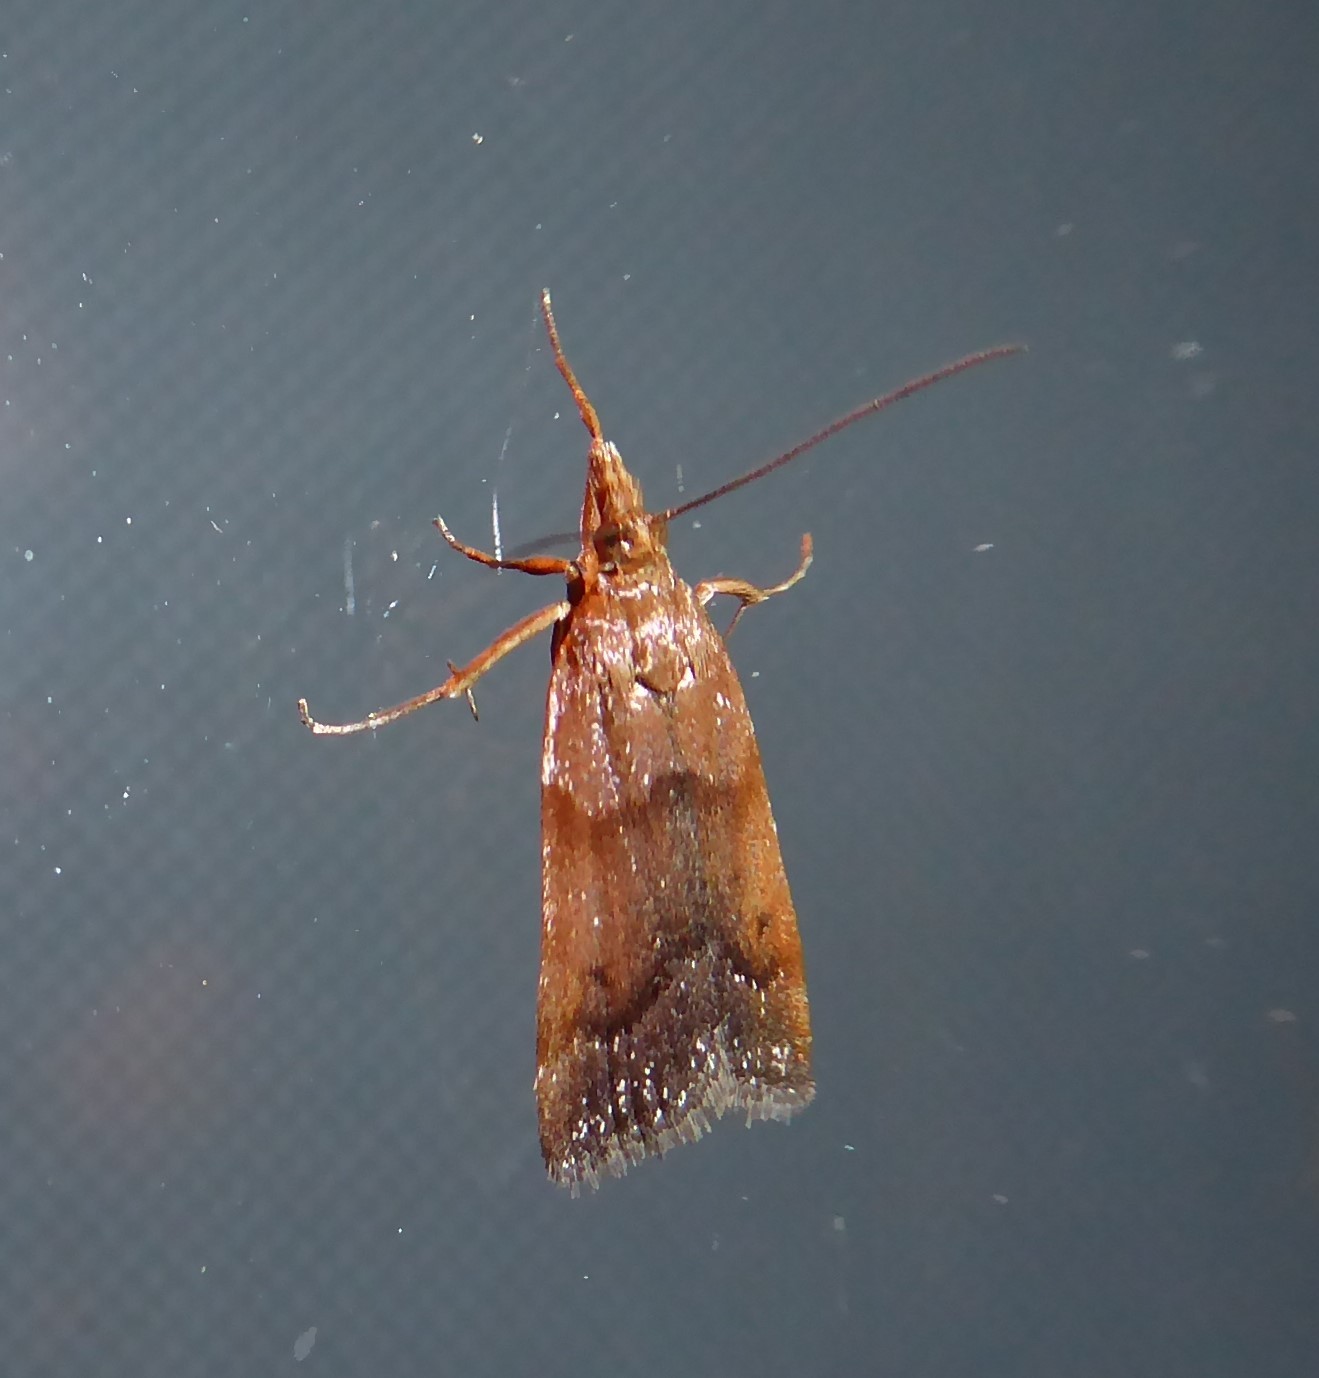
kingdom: Animalia
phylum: Arthropoda
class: Insecta
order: Lepidoptera
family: Crambidae
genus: Eudonia
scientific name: Eudonia feredayi
